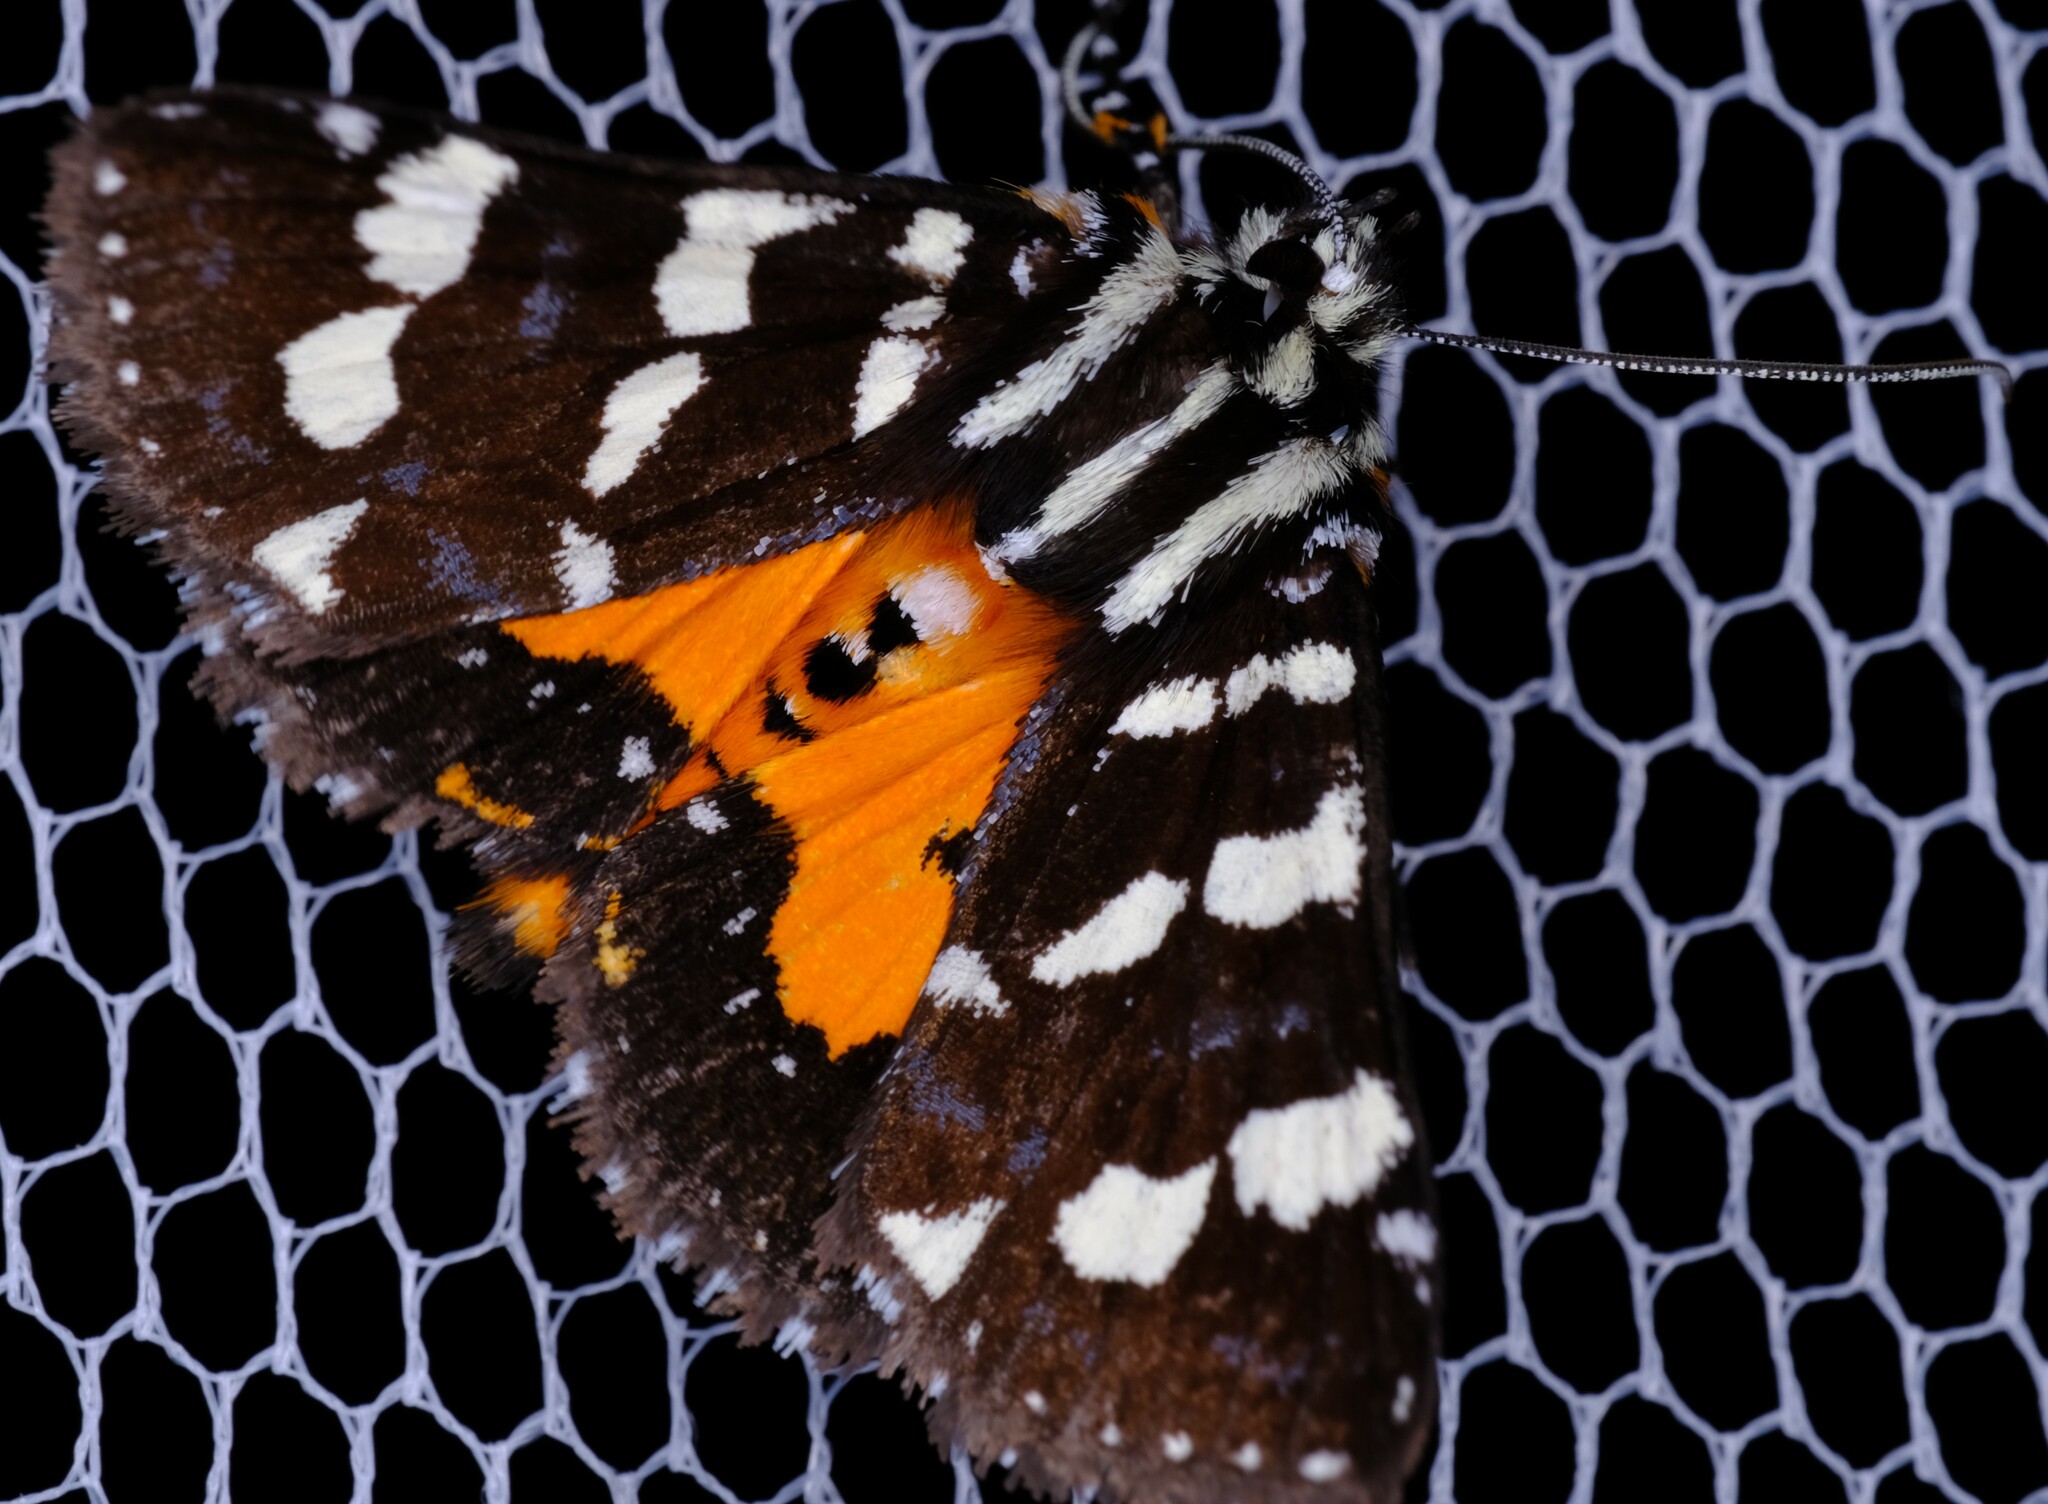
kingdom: Animalia
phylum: Arthropoda
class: Insecta
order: Lepidoptera
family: Noctuidae
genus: Hecatesia
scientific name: Hecatesia thyridion
